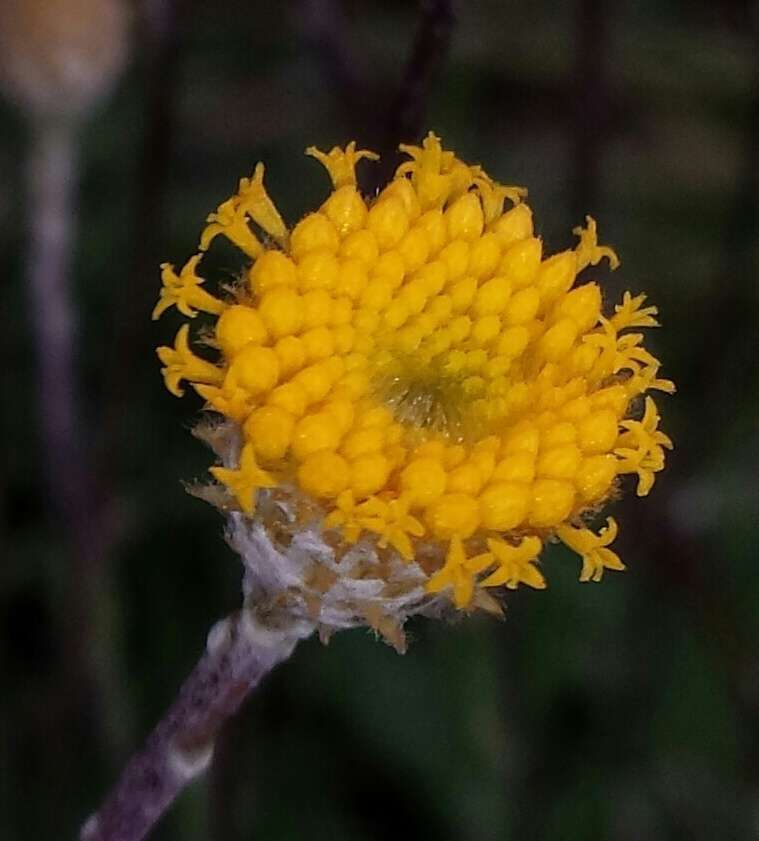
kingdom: Plantae
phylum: Tracheophyta
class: Magnoliopsida
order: Asterales
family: Asteraceae
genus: Leptorhynchos
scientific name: Leptorhynchos squamatus
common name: Scaly-buttons
